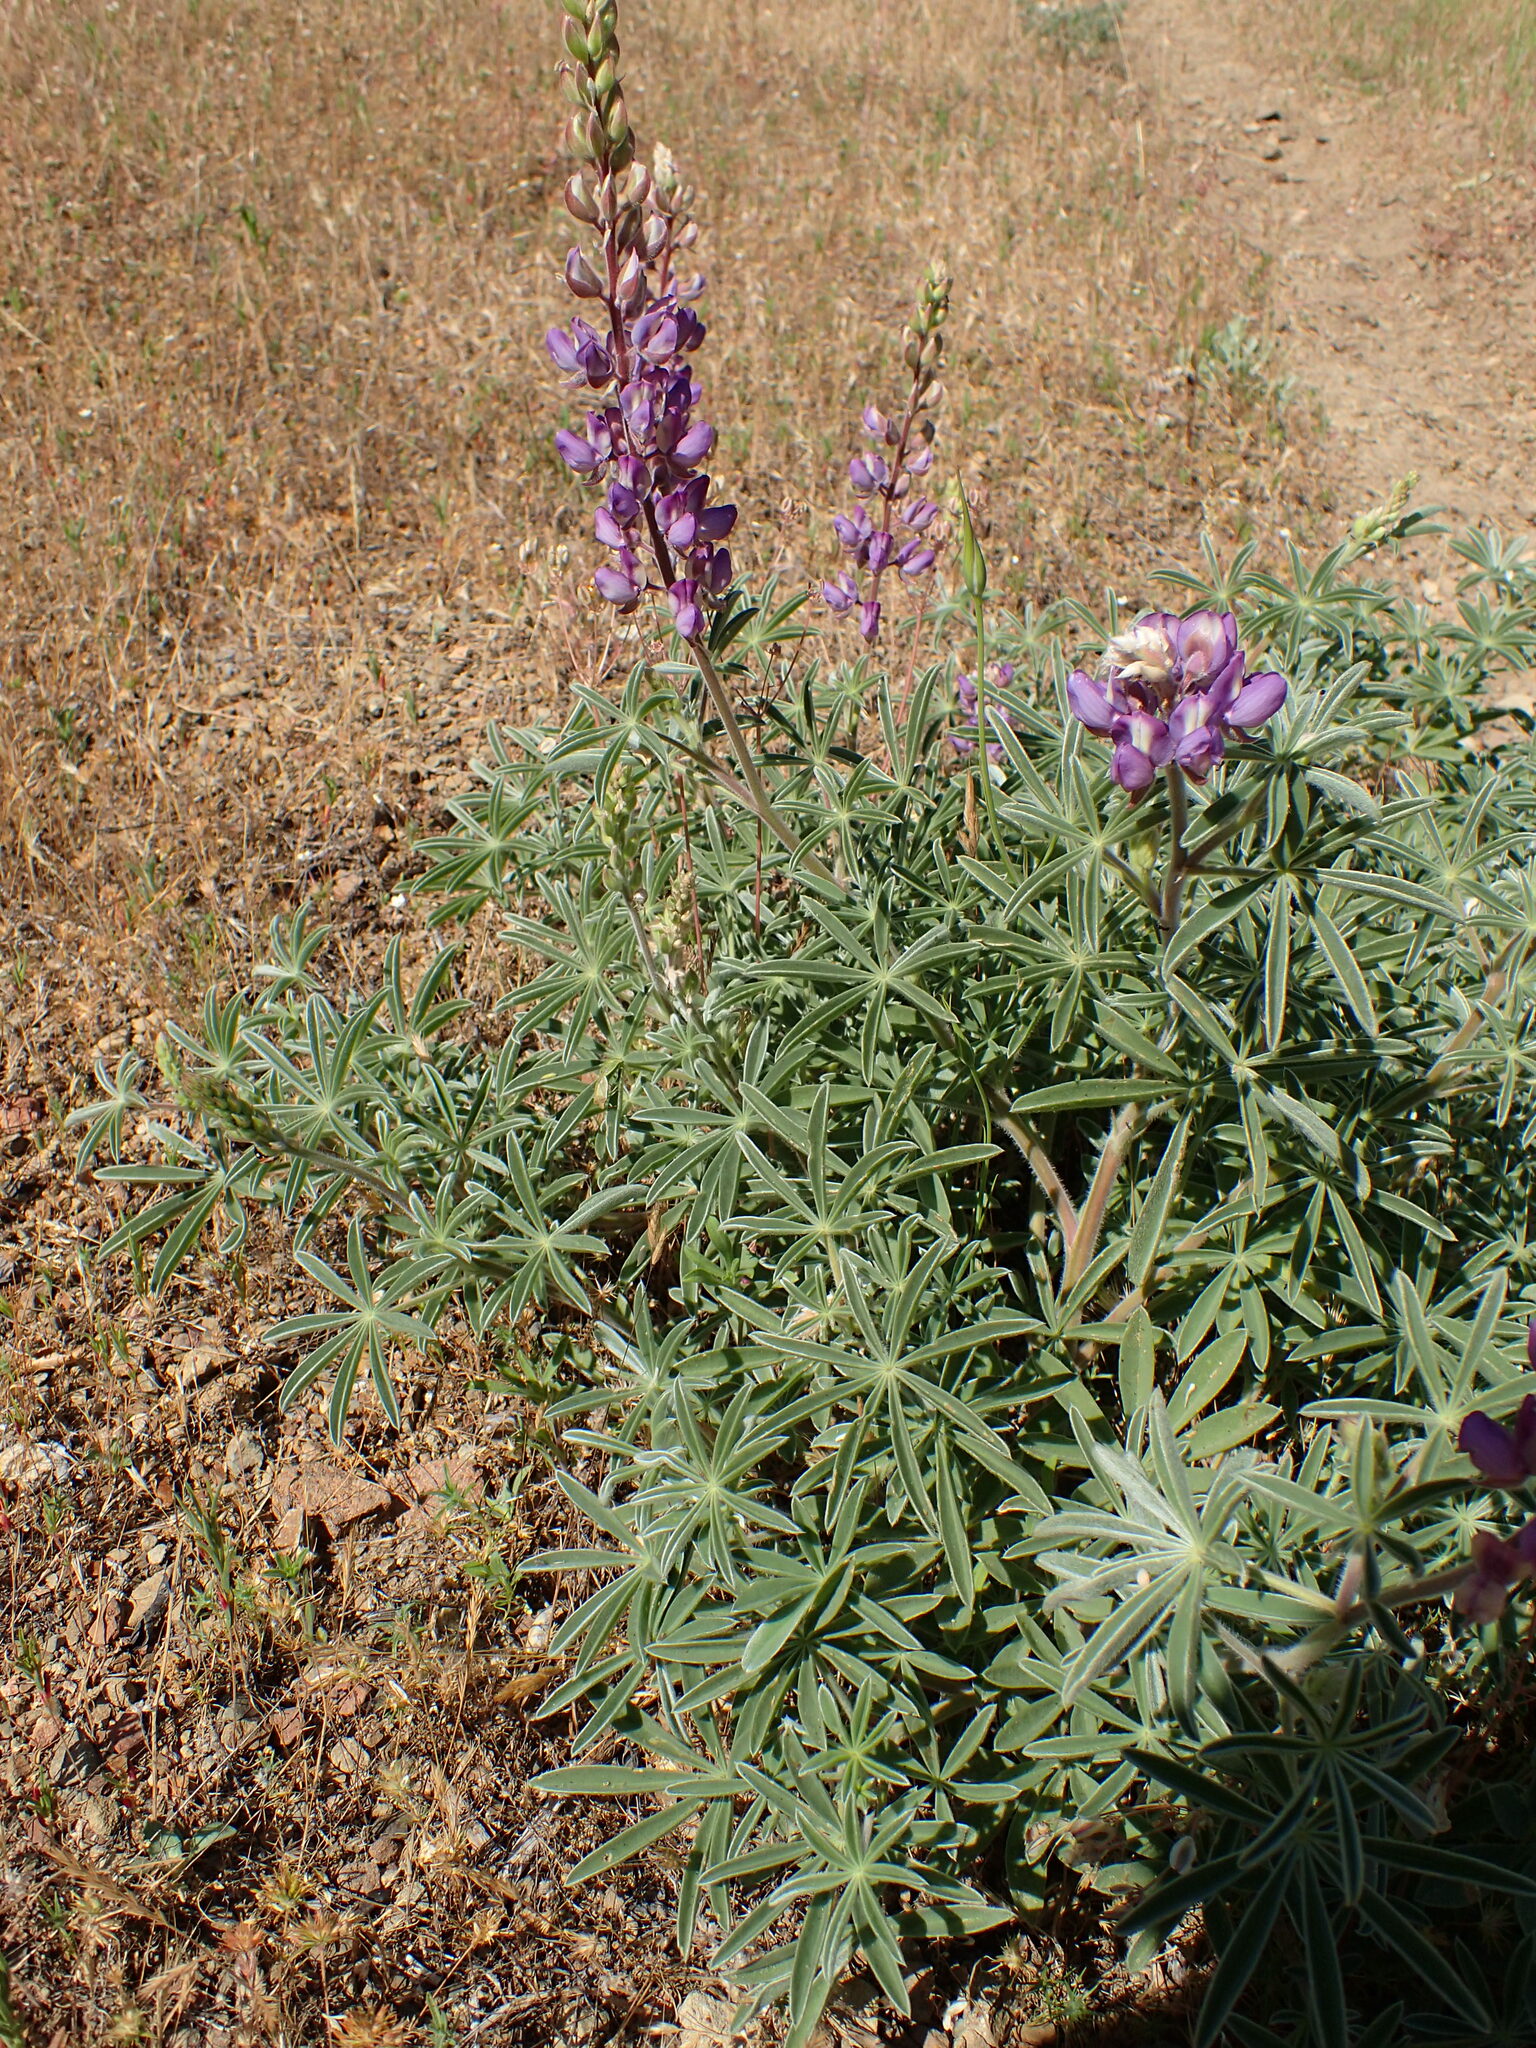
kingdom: Plantae
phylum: Tracheophyta
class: Magnoliopsida
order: Fabales
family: Fabaceae
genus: Lupinus
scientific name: Lupinus formosus
